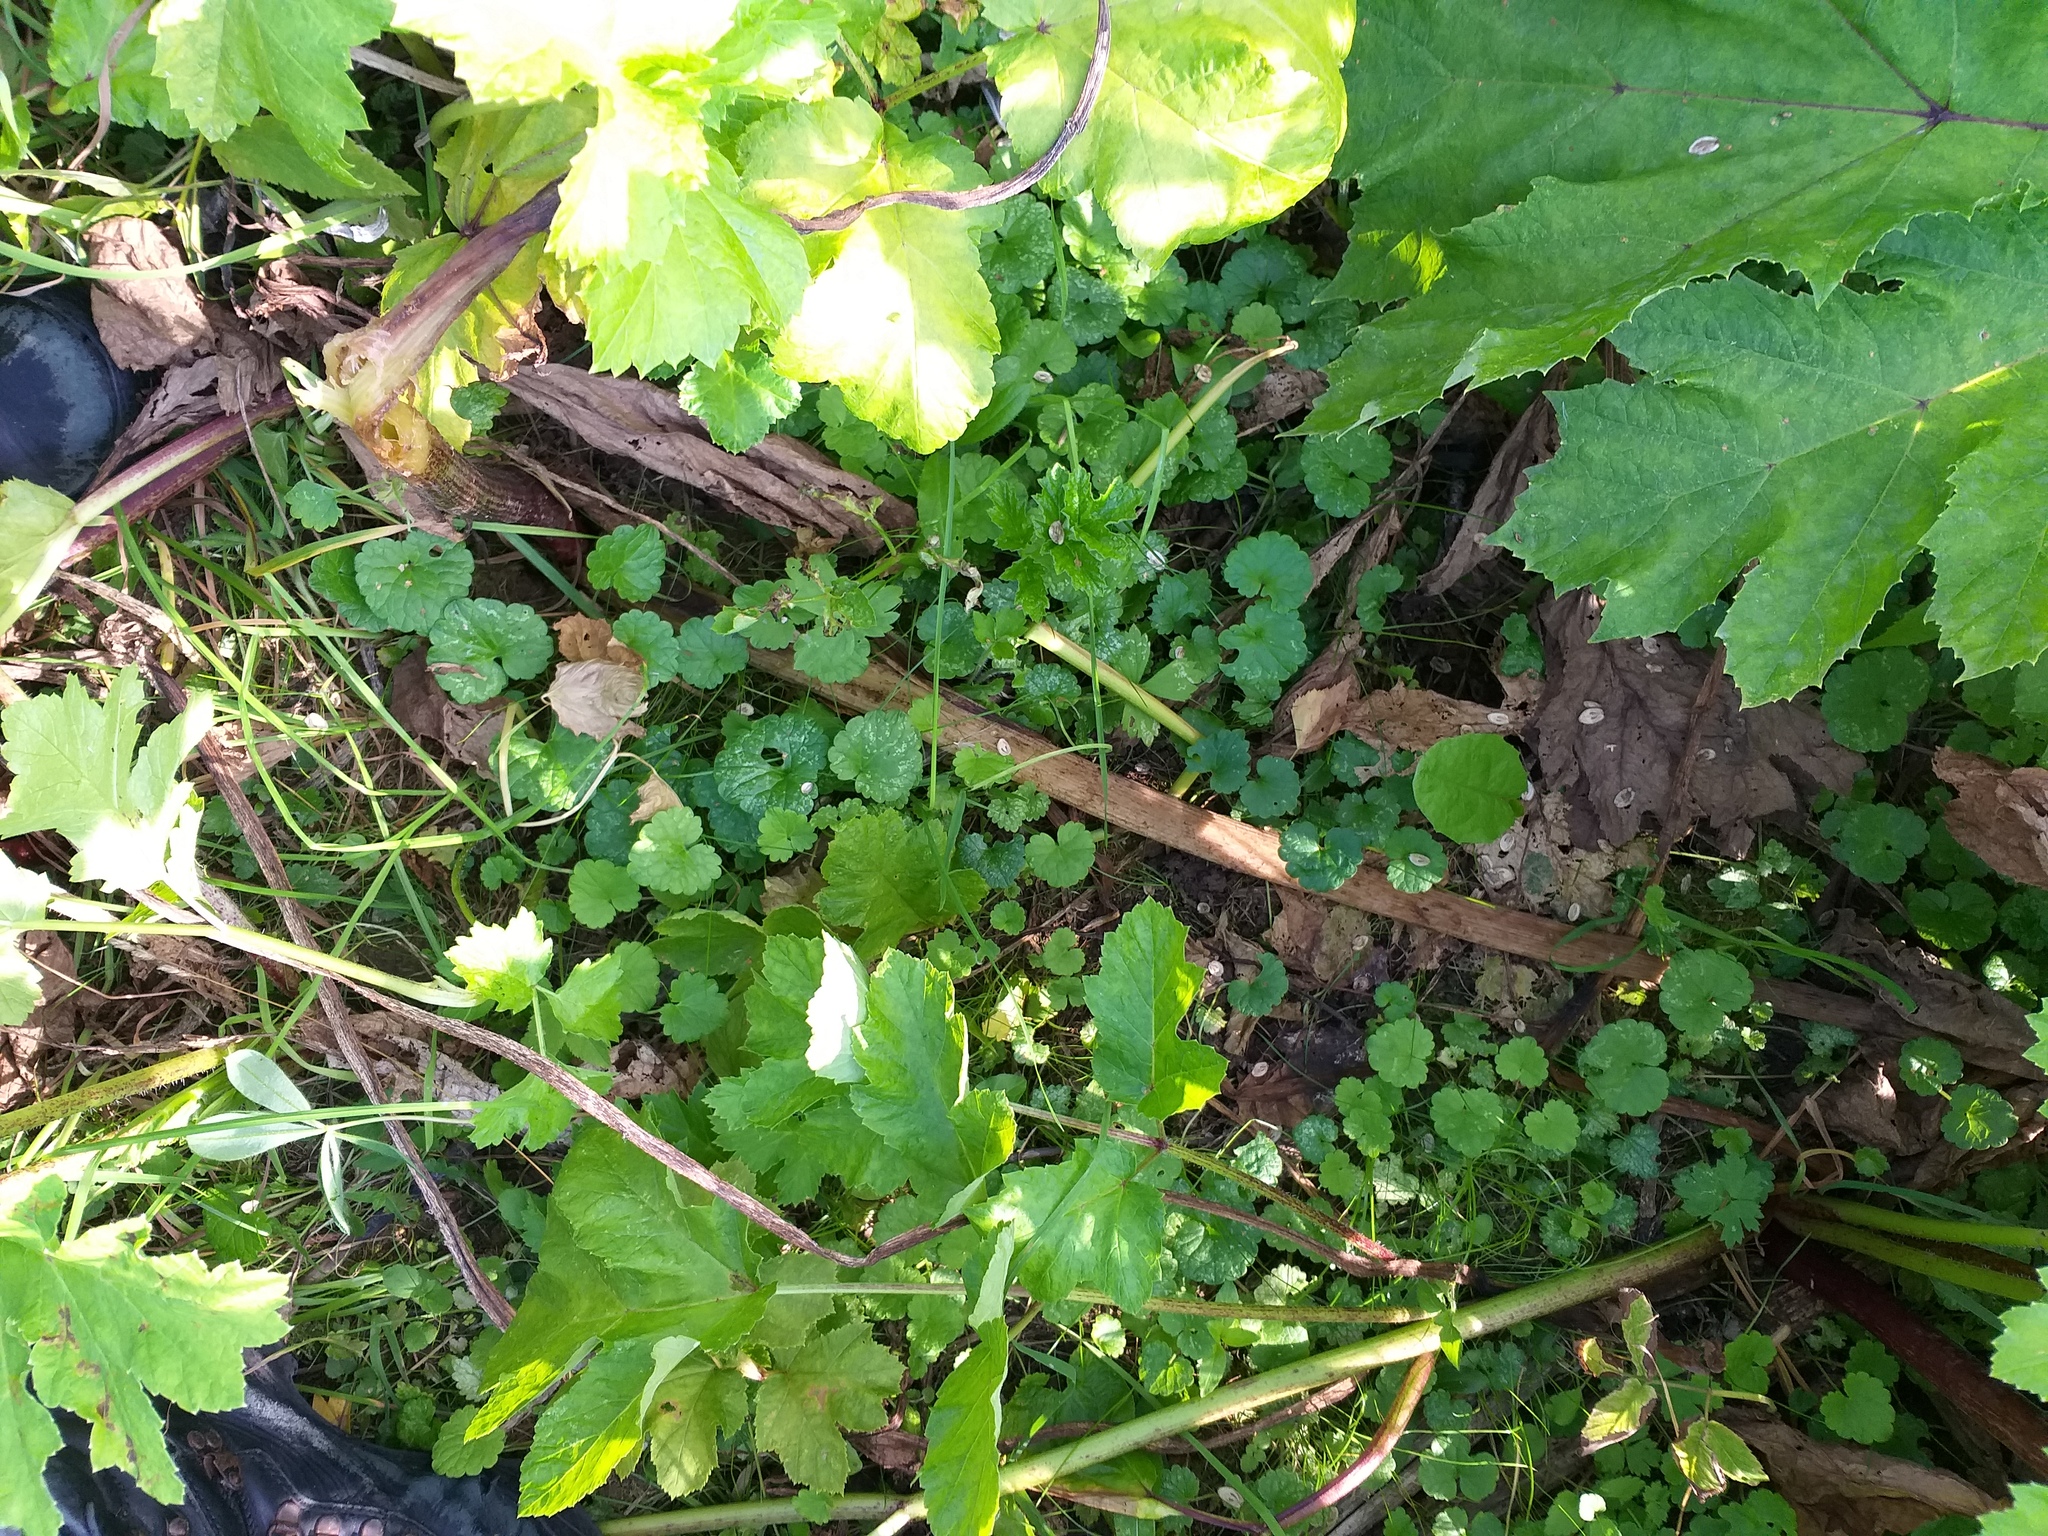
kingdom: Plantae
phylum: Tracheophyta
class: Magnoliopsida
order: Lamiales
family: Lamiaceae
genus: Glechoma
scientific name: Glechoma hederacea
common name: Ground ivy
